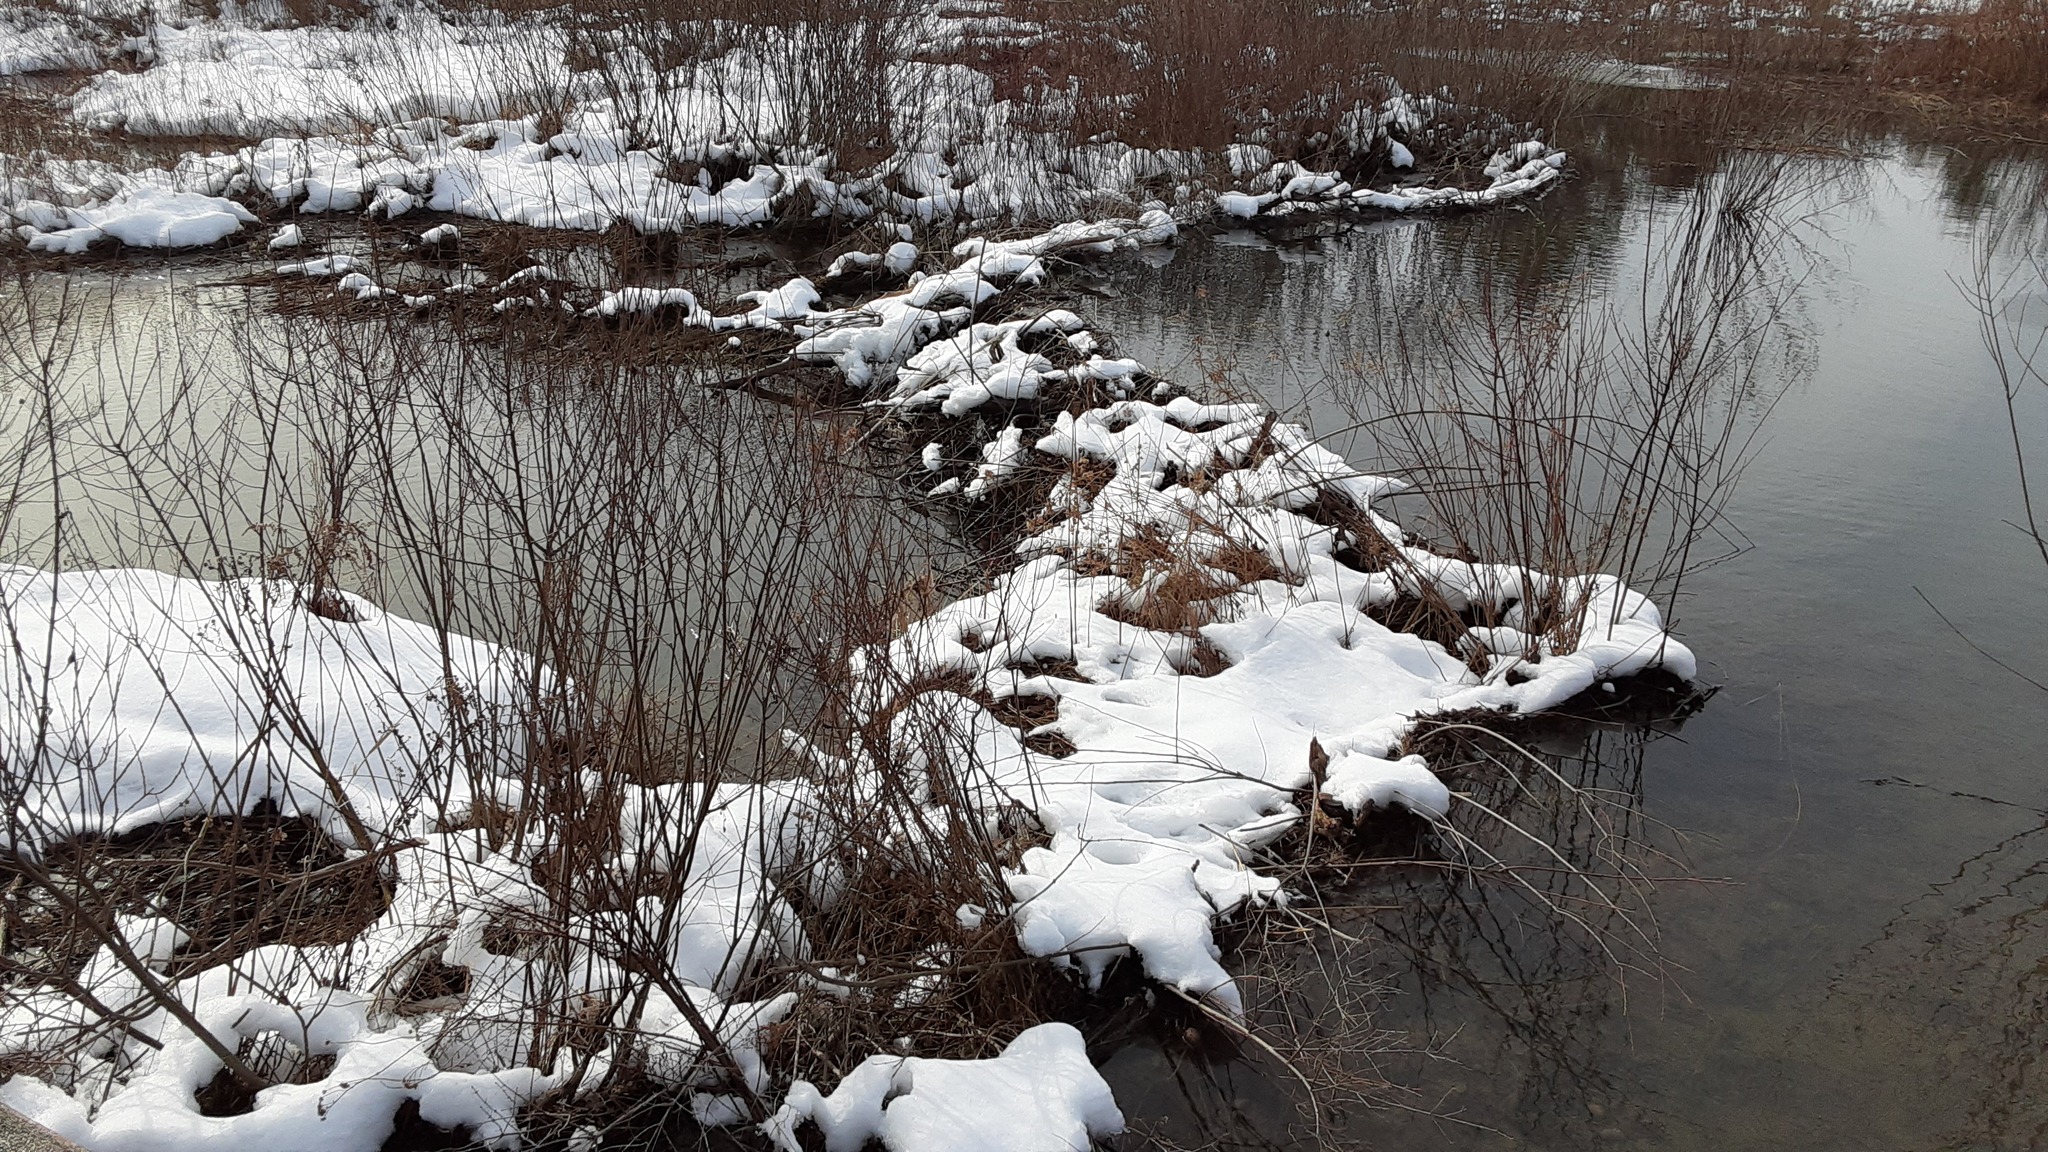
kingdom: Animalia
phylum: Chordata
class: Mammalia
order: Rodentia
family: Castoridae
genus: Castor
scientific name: Castor canadensis
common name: American beaver
